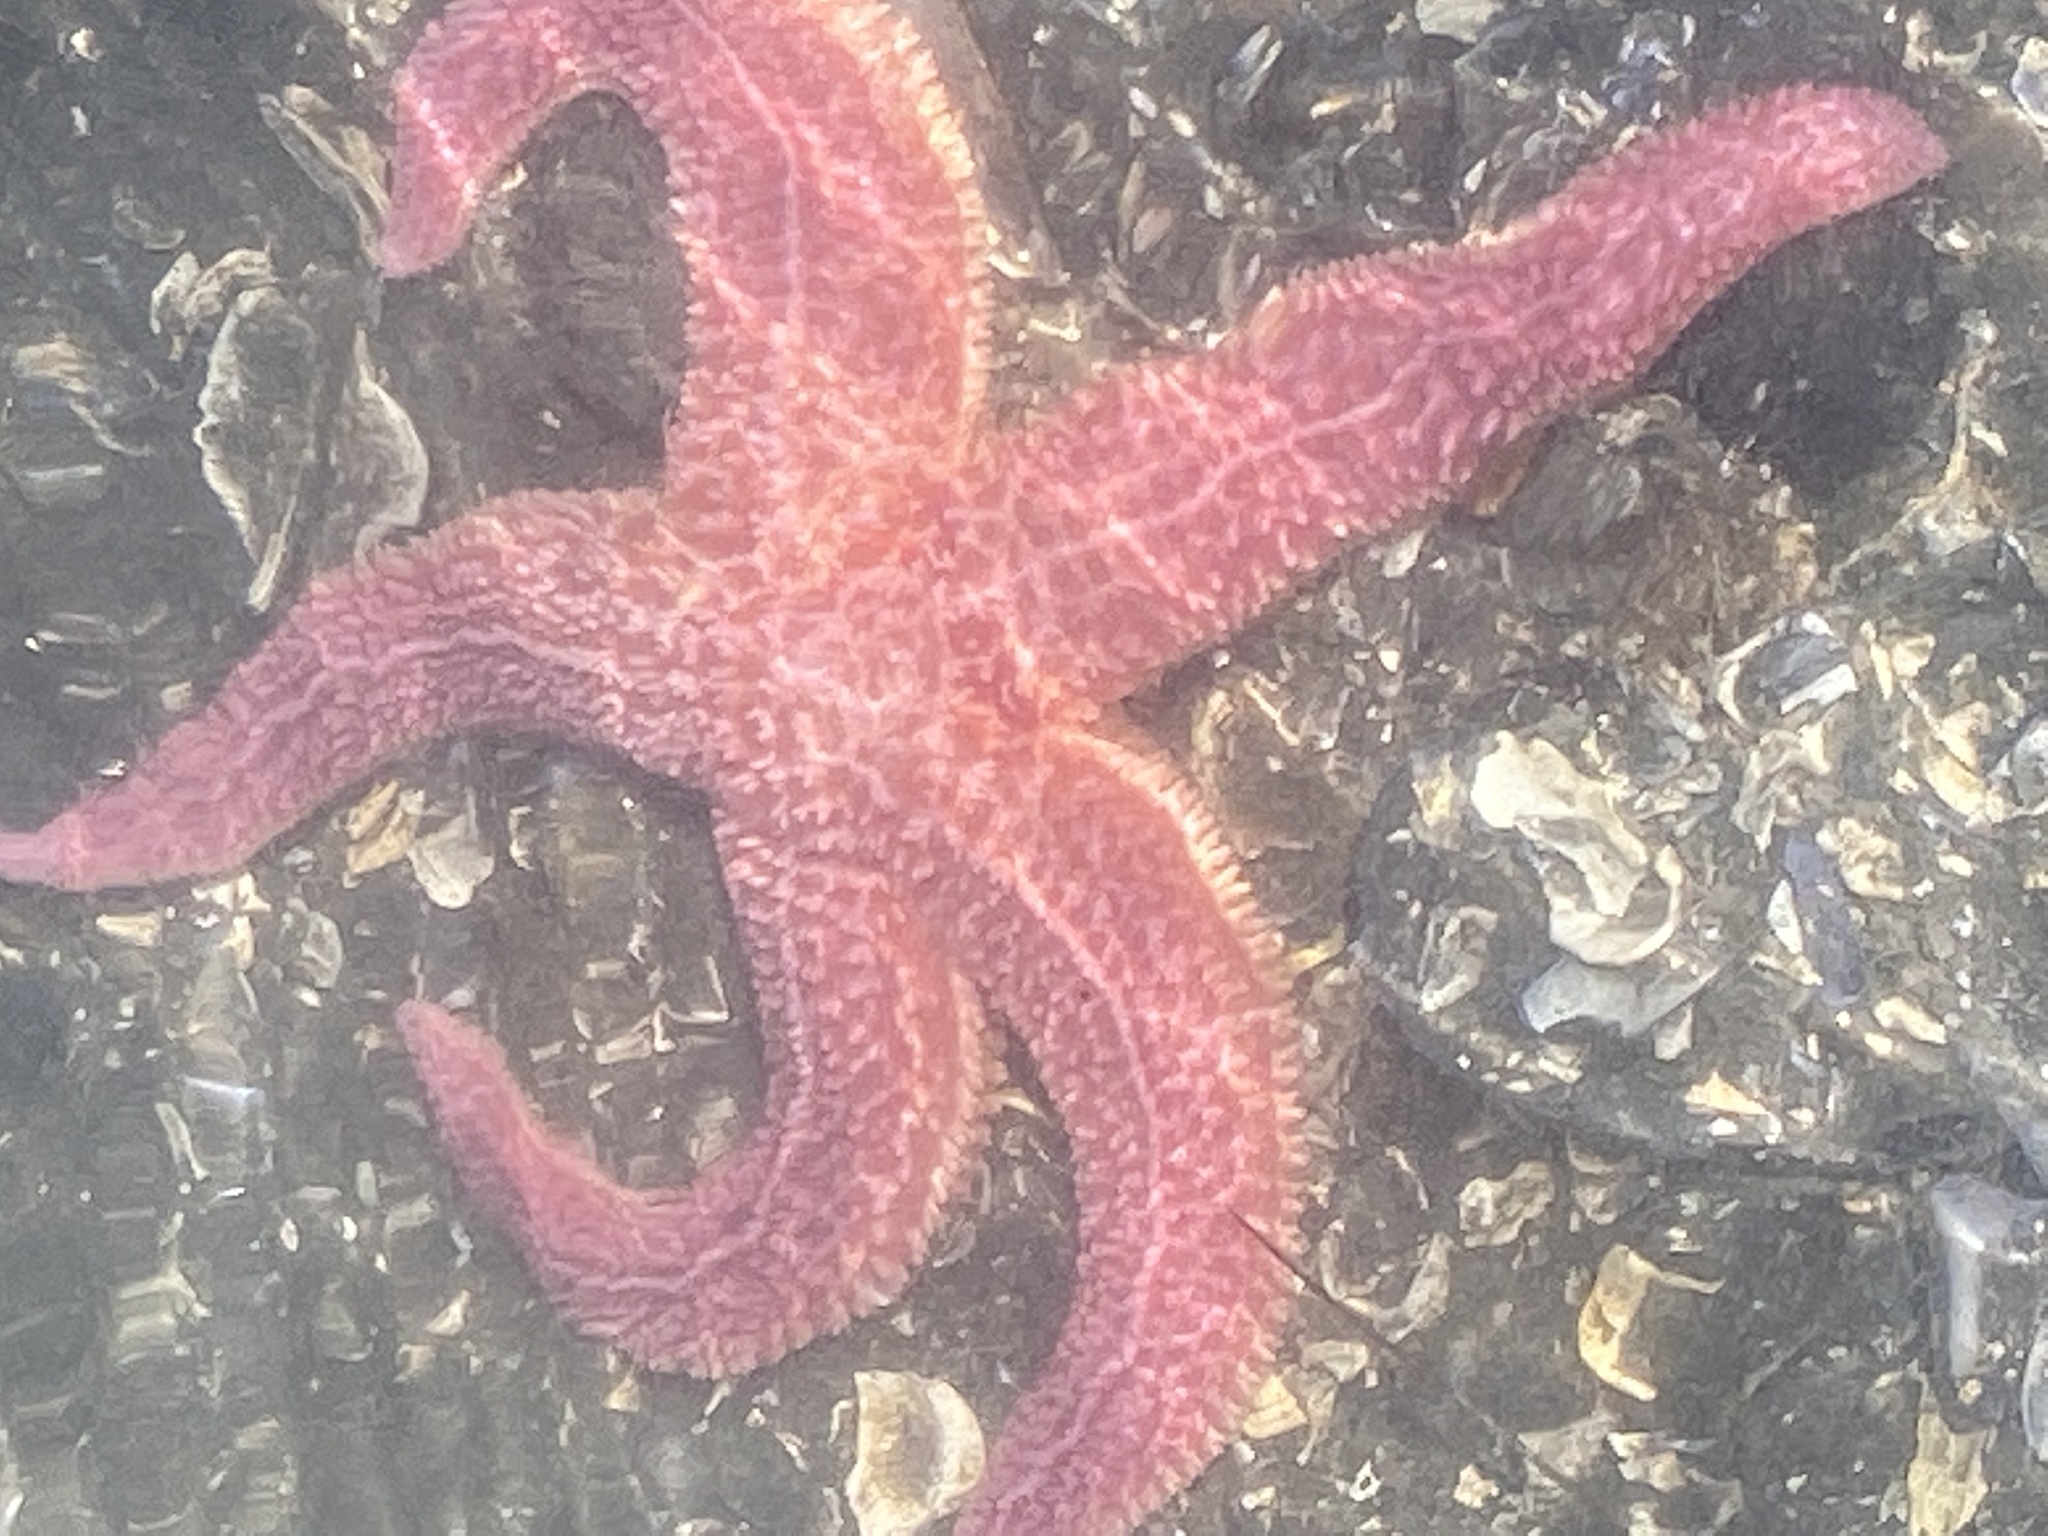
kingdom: Animalia
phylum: Echinodermata
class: Asteroidea
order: Forcipulatida
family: Asteriidae
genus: Asterias
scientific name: Asterias rubens
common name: Common starfish
